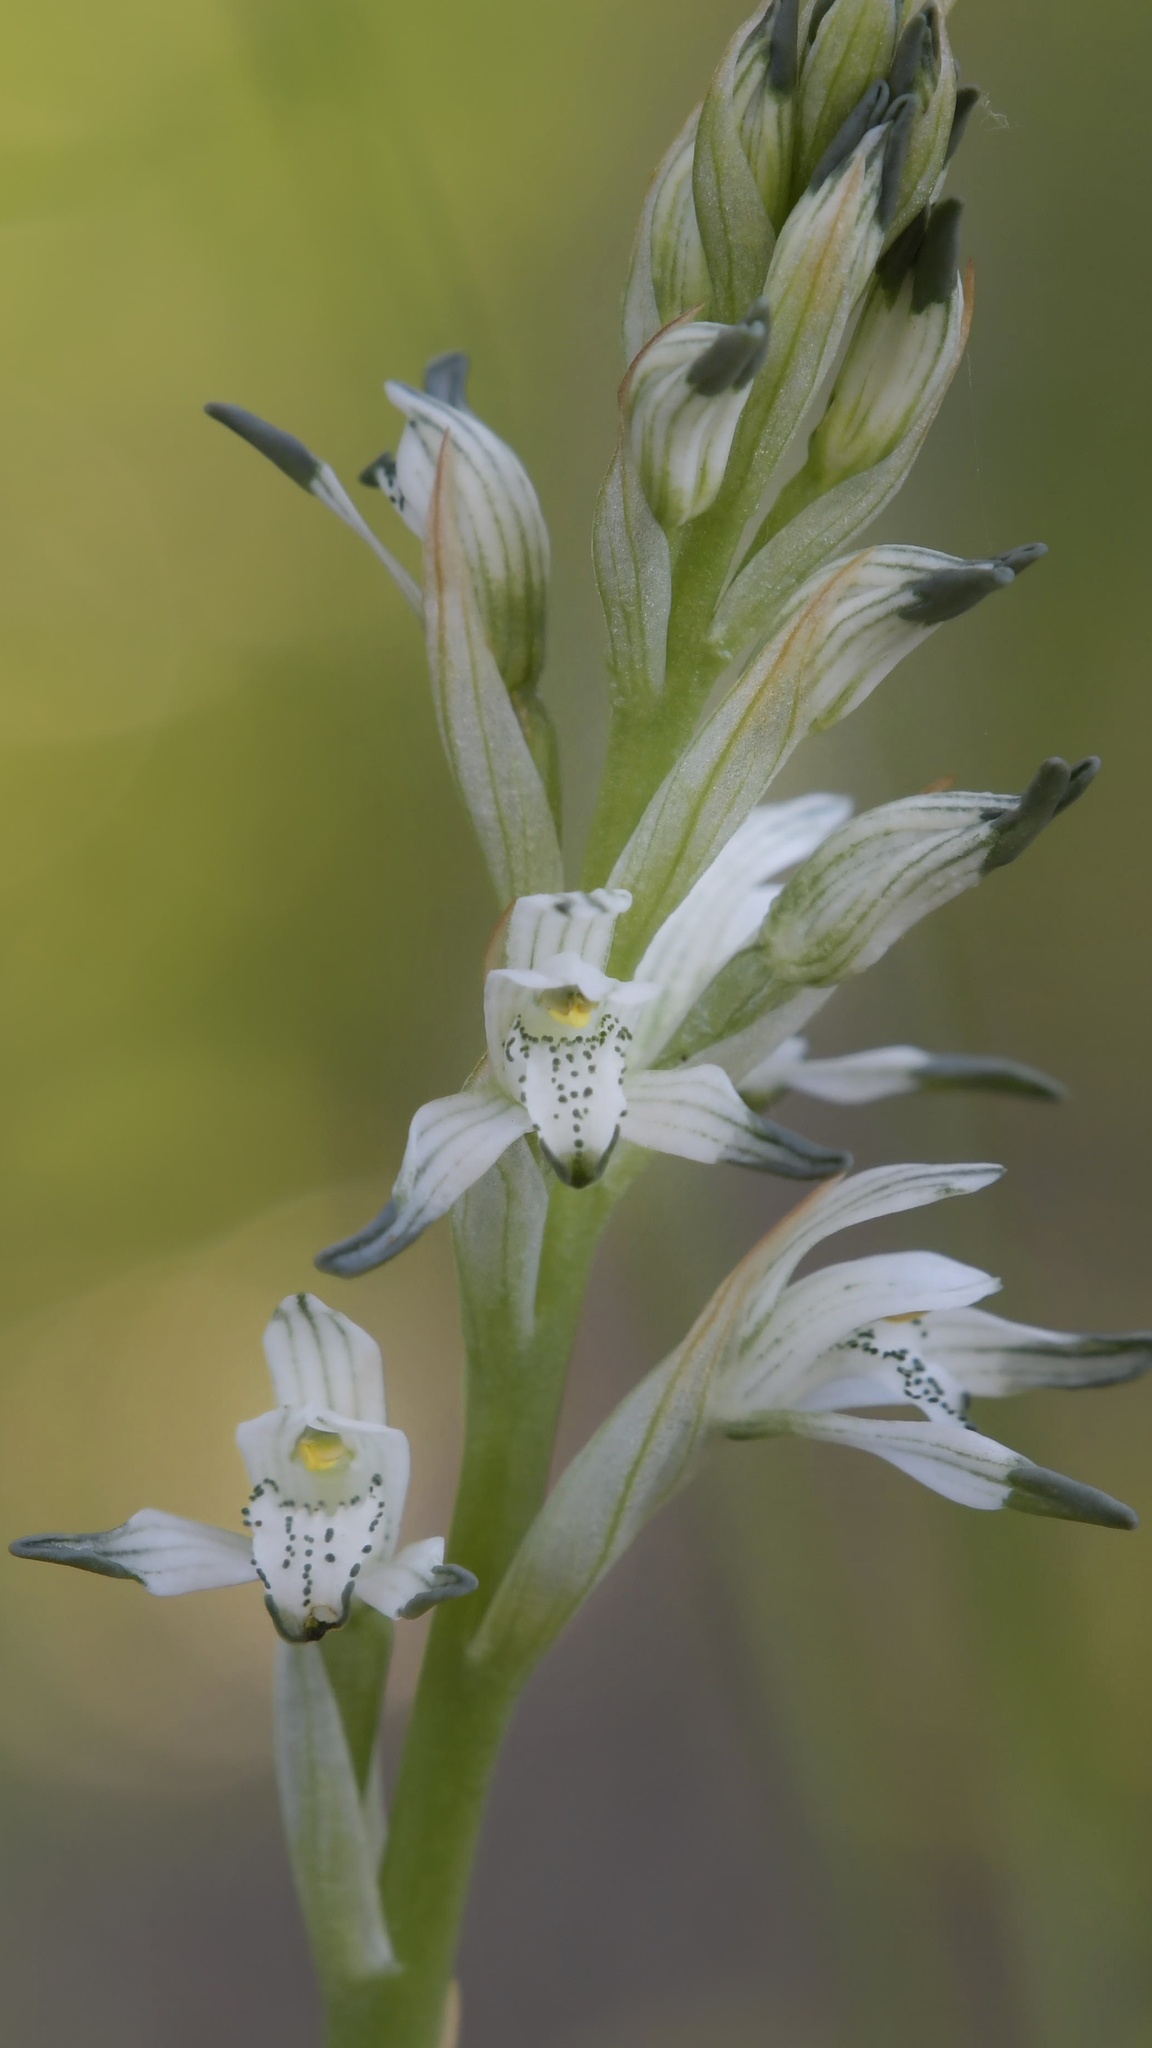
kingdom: Plantae
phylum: Tracheophyta
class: Liliopsida
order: Asparagales
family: Orchidaceae
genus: Chloraea
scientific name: Chloraea multiflora
